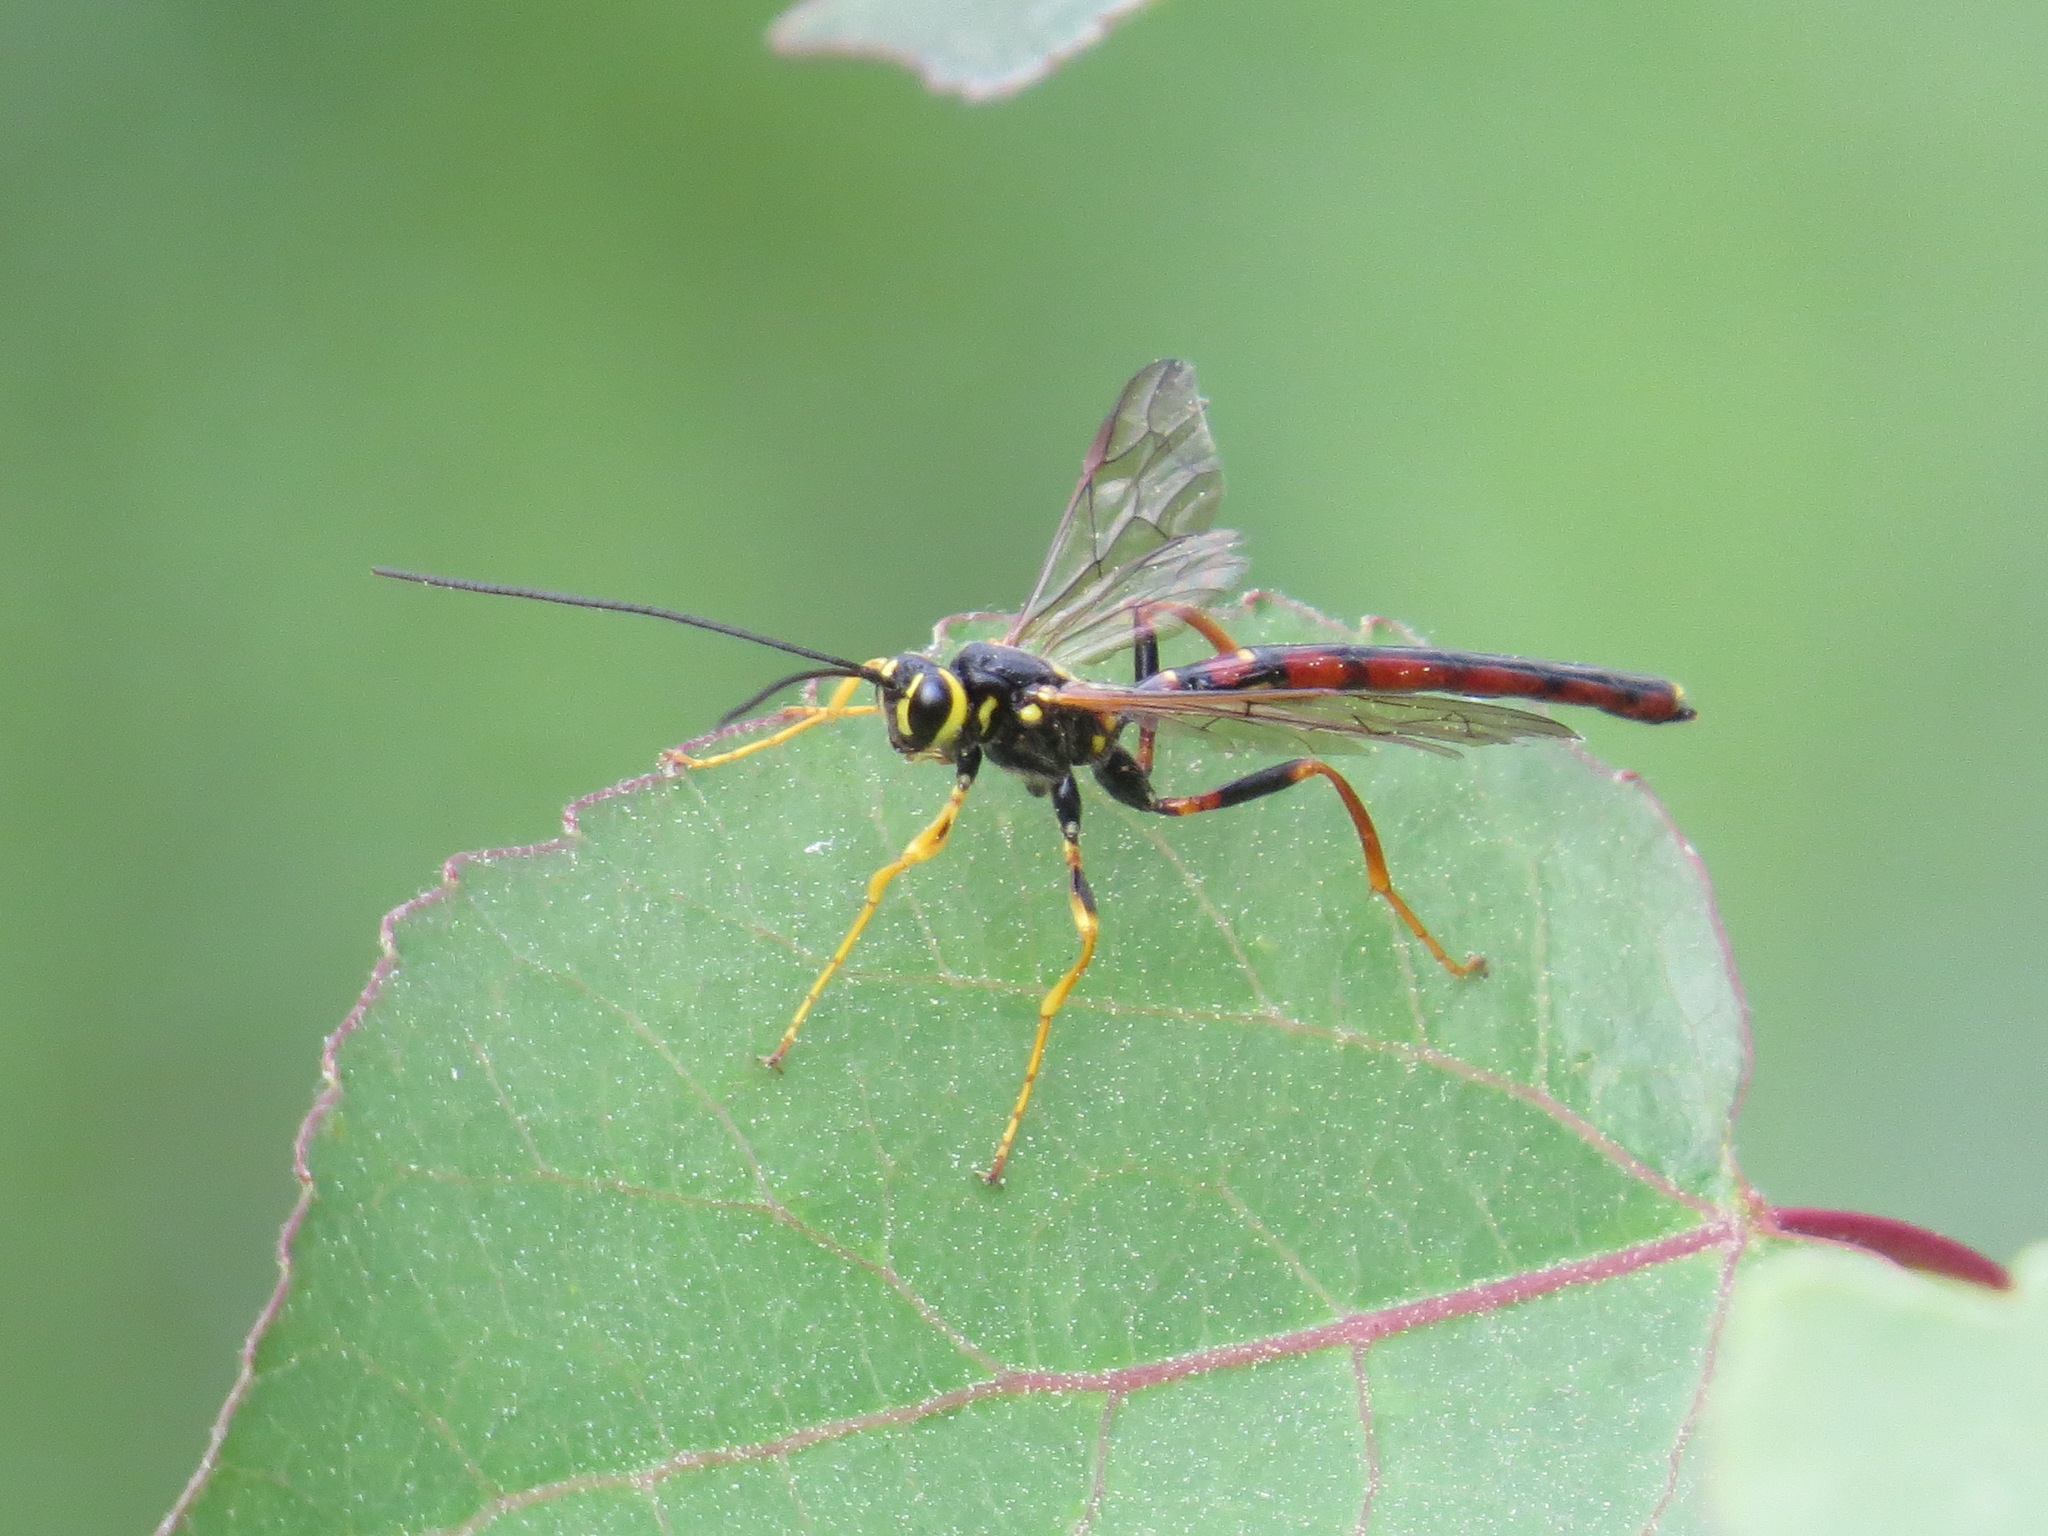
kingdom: Animalia
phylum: Arthropoda
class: Insecta
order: Hymenoptera
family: Ichneumonidae
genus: Megarhyssa
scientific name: Megarhyssa nortoni
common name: Norton's giant ichneumonid wasp
